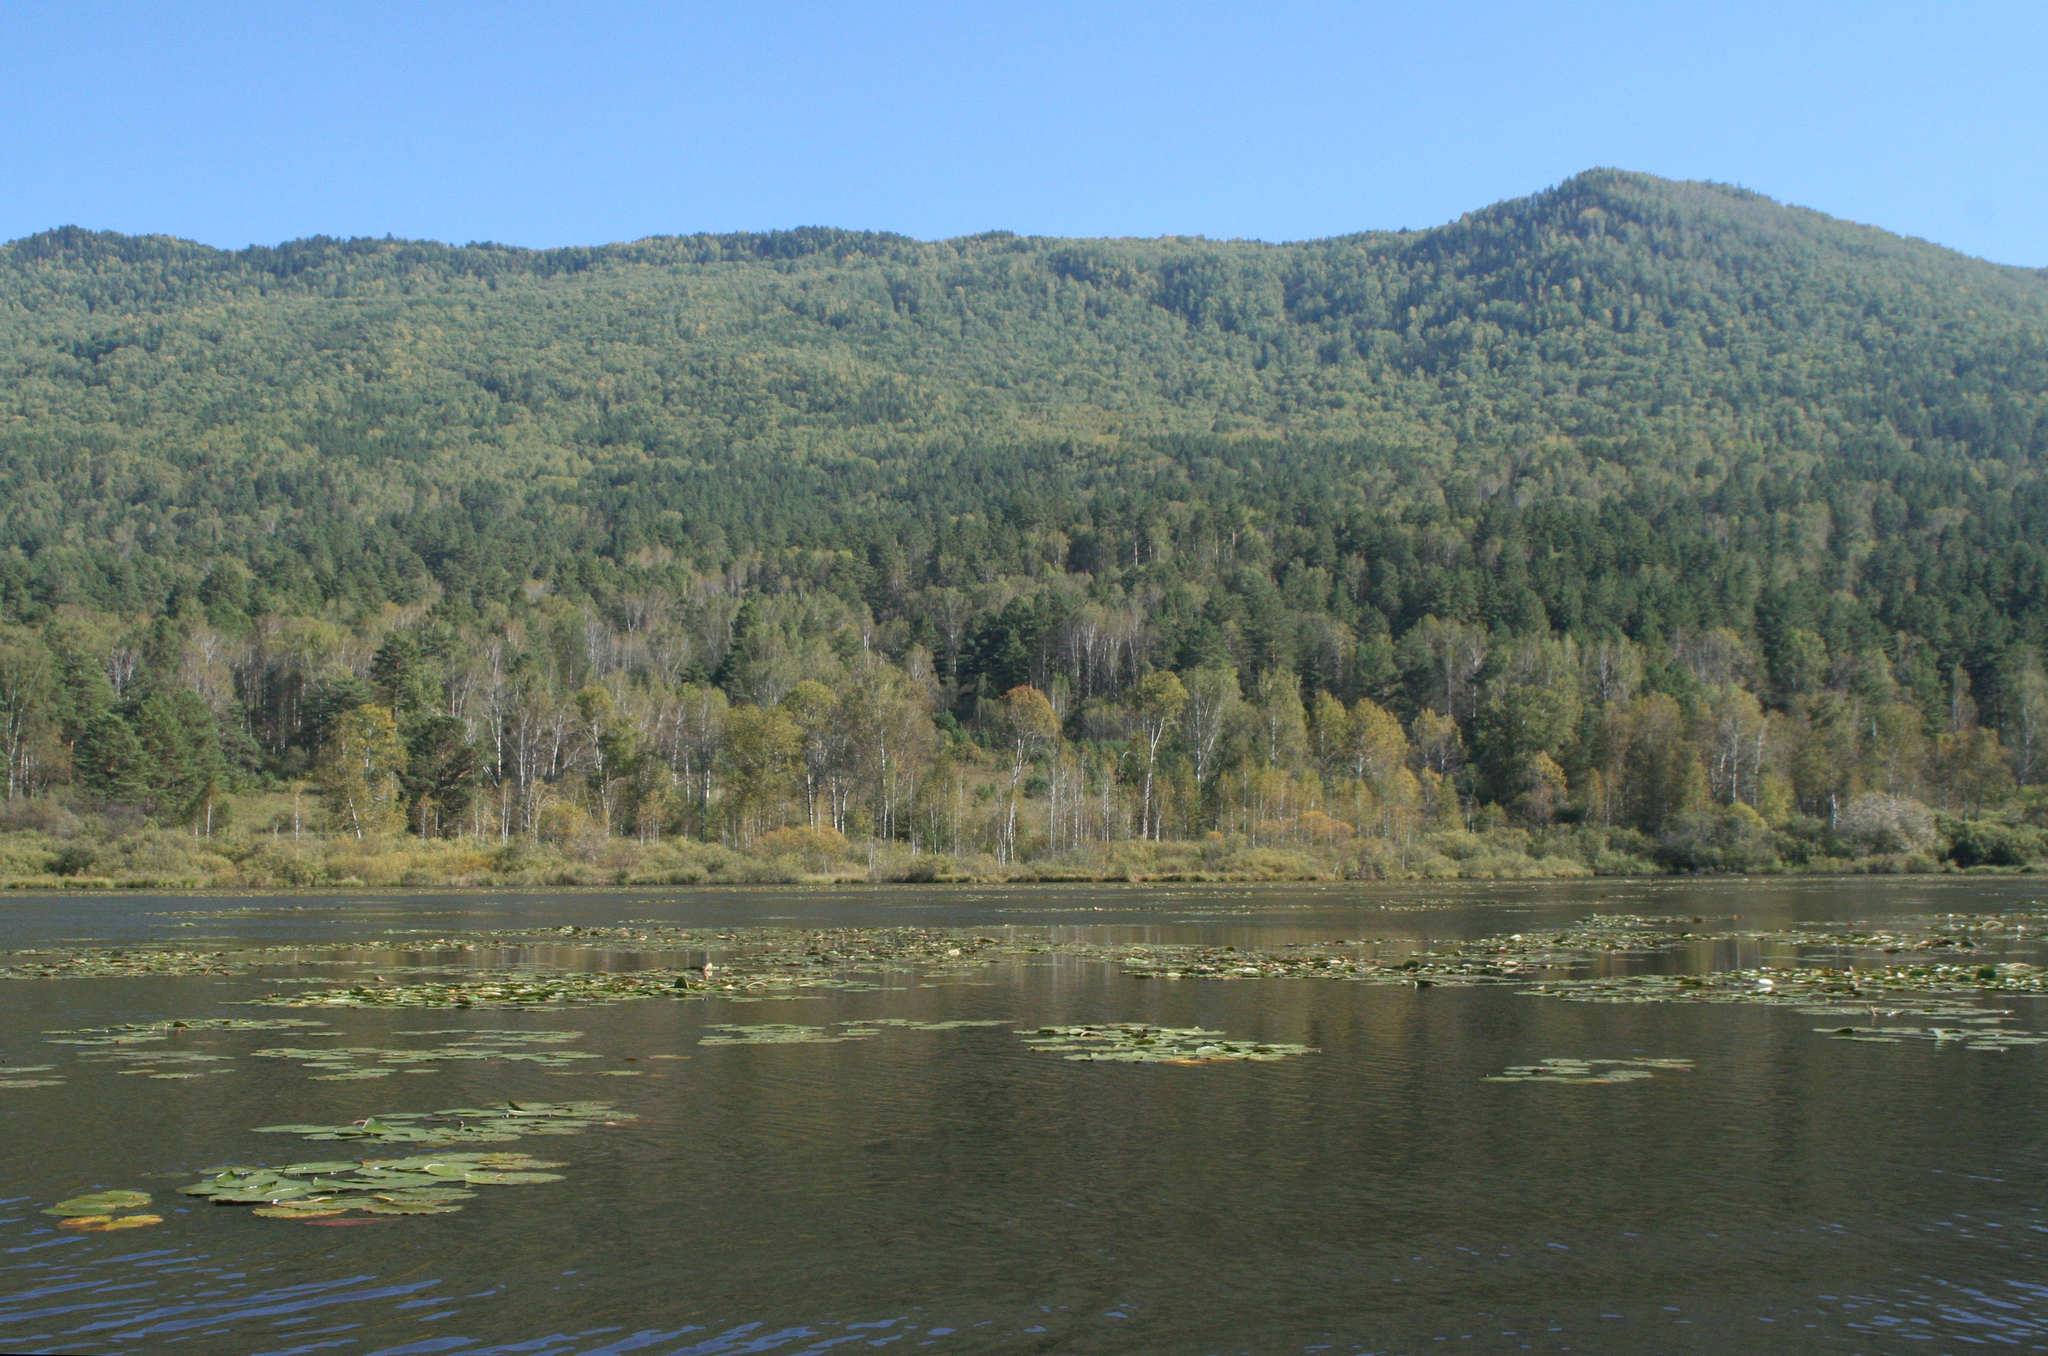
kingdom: Plantae
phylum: Tracheophyta
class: Magnoliopsida
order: Nymphaeales
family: Nymphaeaceae
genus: Nymphaea
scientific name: Nymphaea candida
